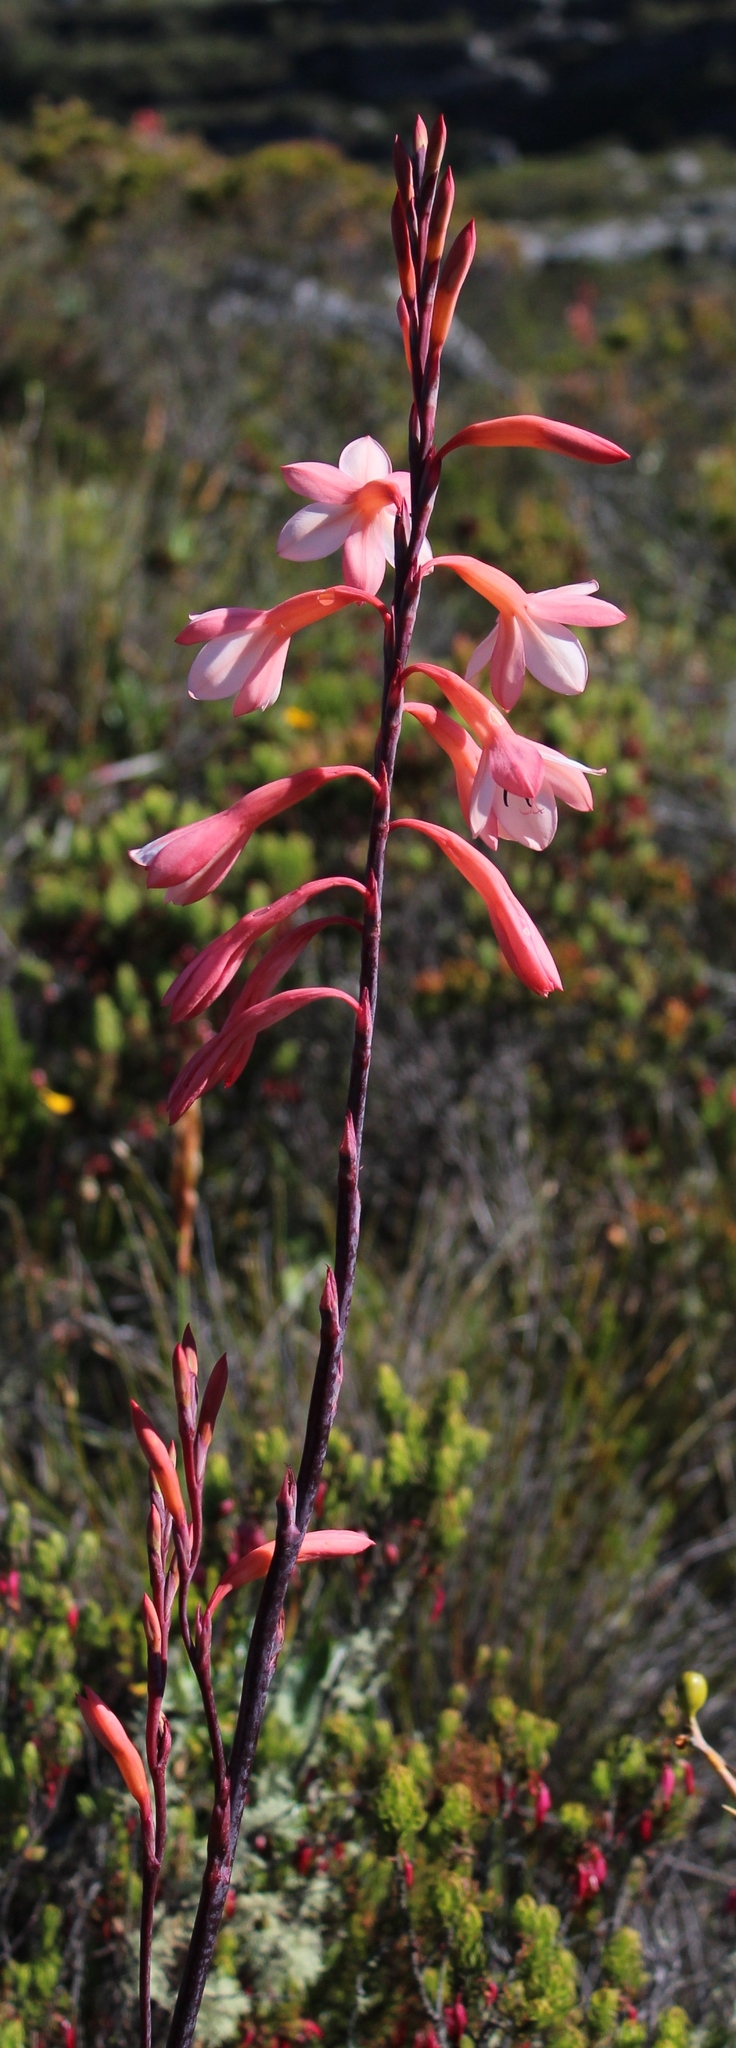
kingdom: Plantae
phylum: Tracheophyta
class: Liliopsida
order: Asparagales
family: Iridaceae
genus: Watsonia
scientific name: Watsonia tabularis
